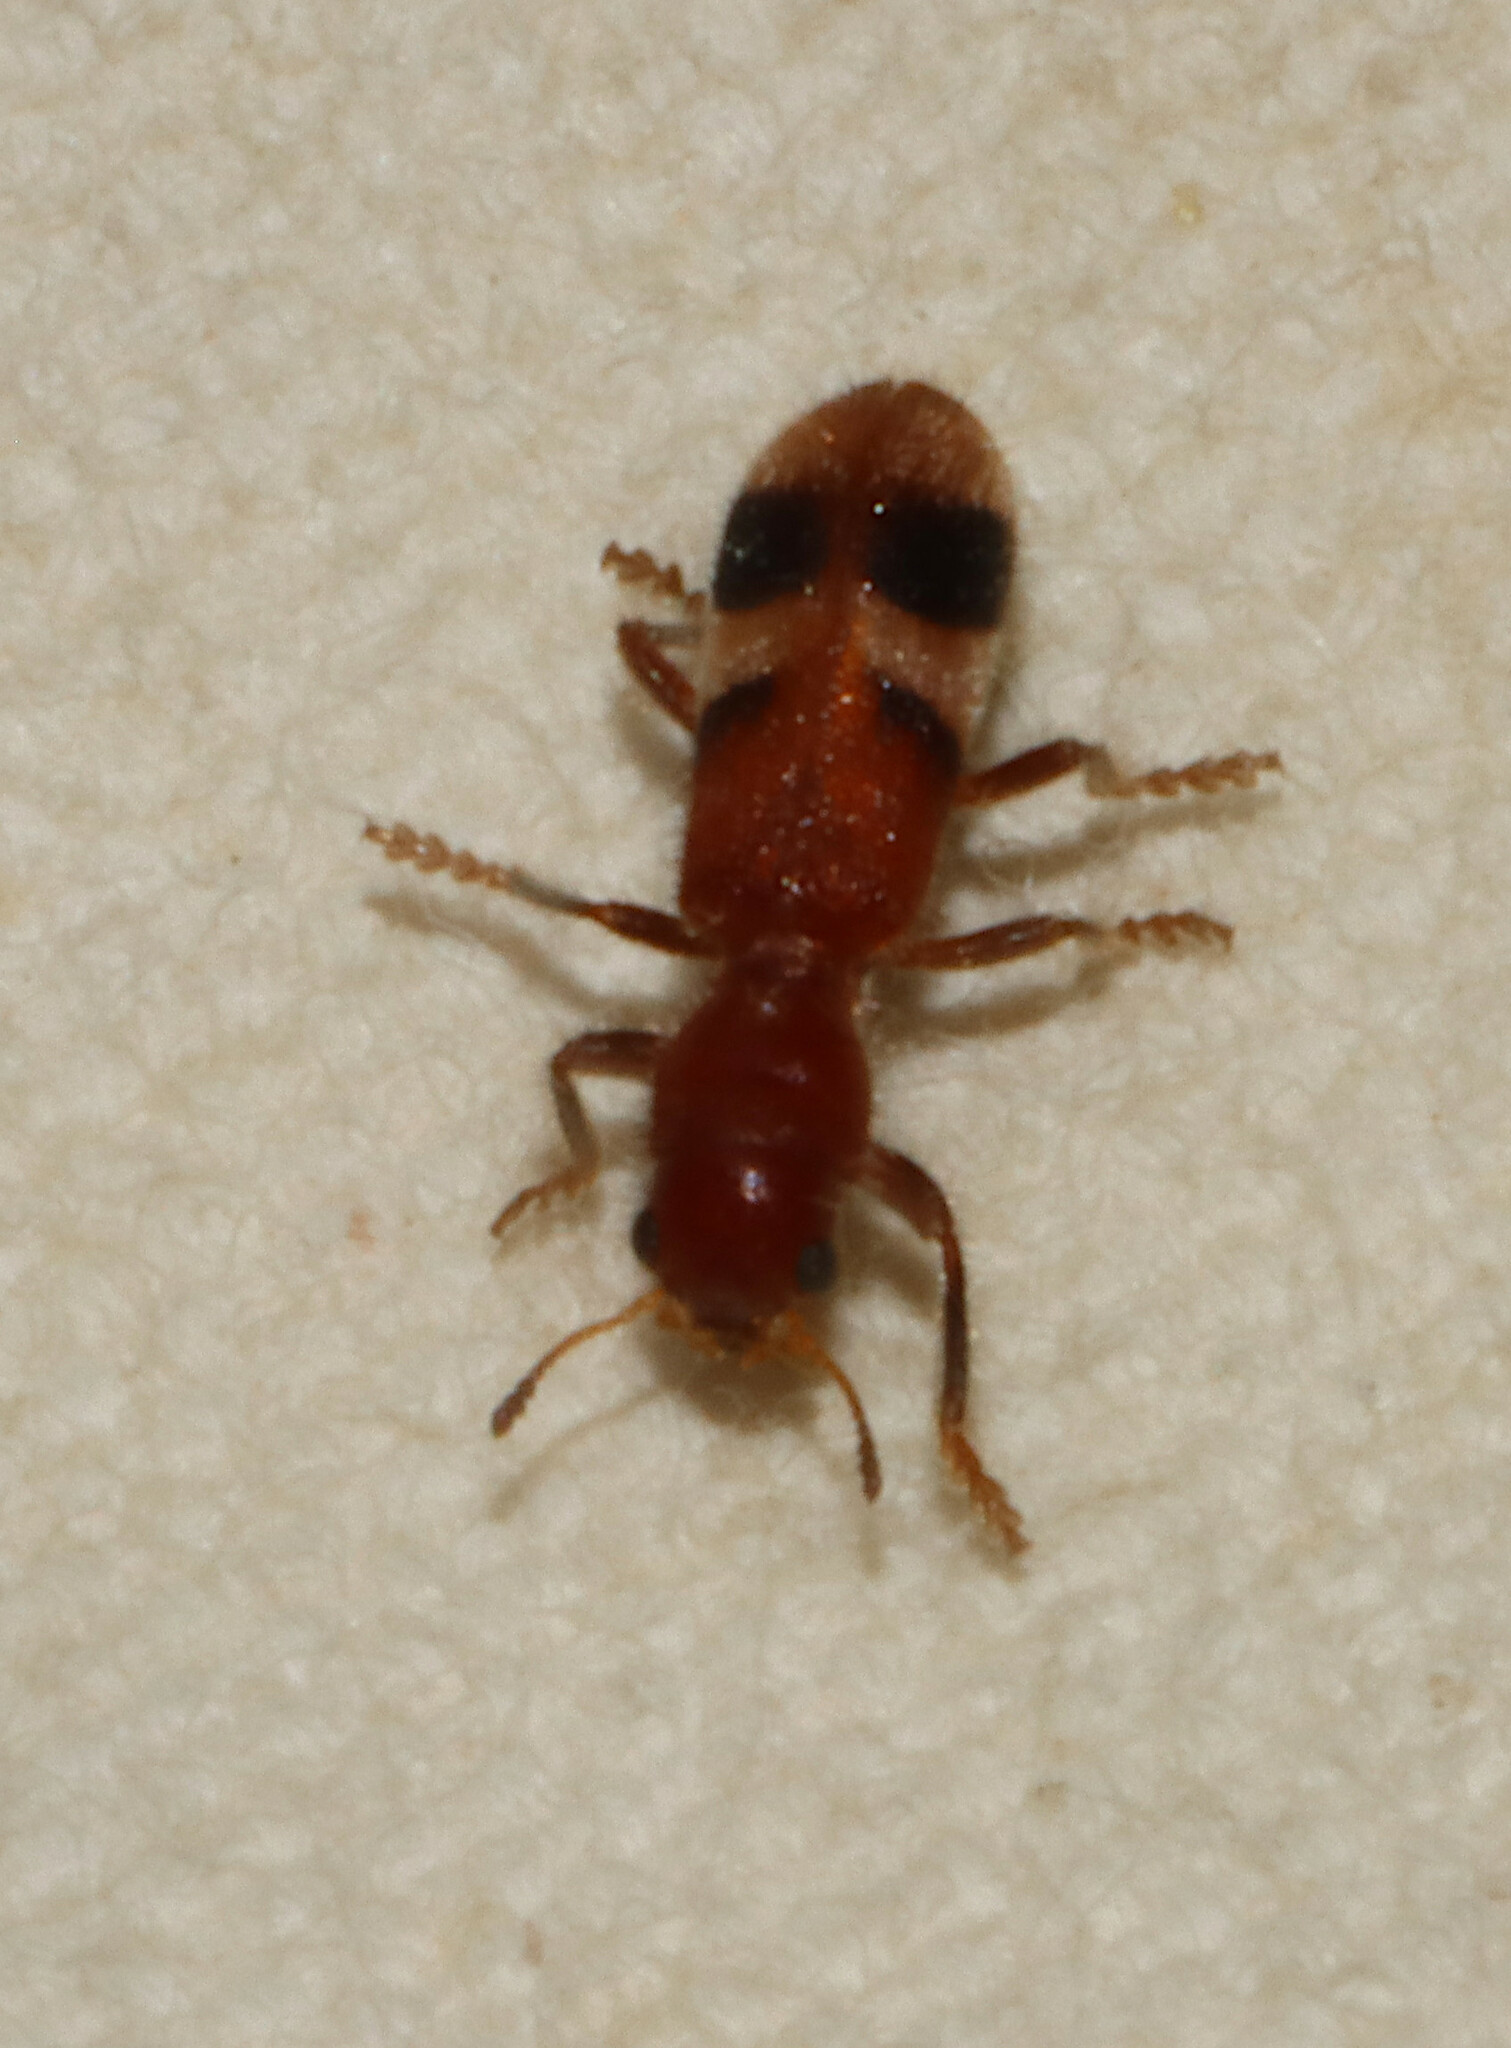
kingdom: Animalia
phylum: Arthropoda
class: Insecta
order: Coleoptera
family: Cleridae
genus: Enoclerus
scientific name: Enoclerus rosmarus
